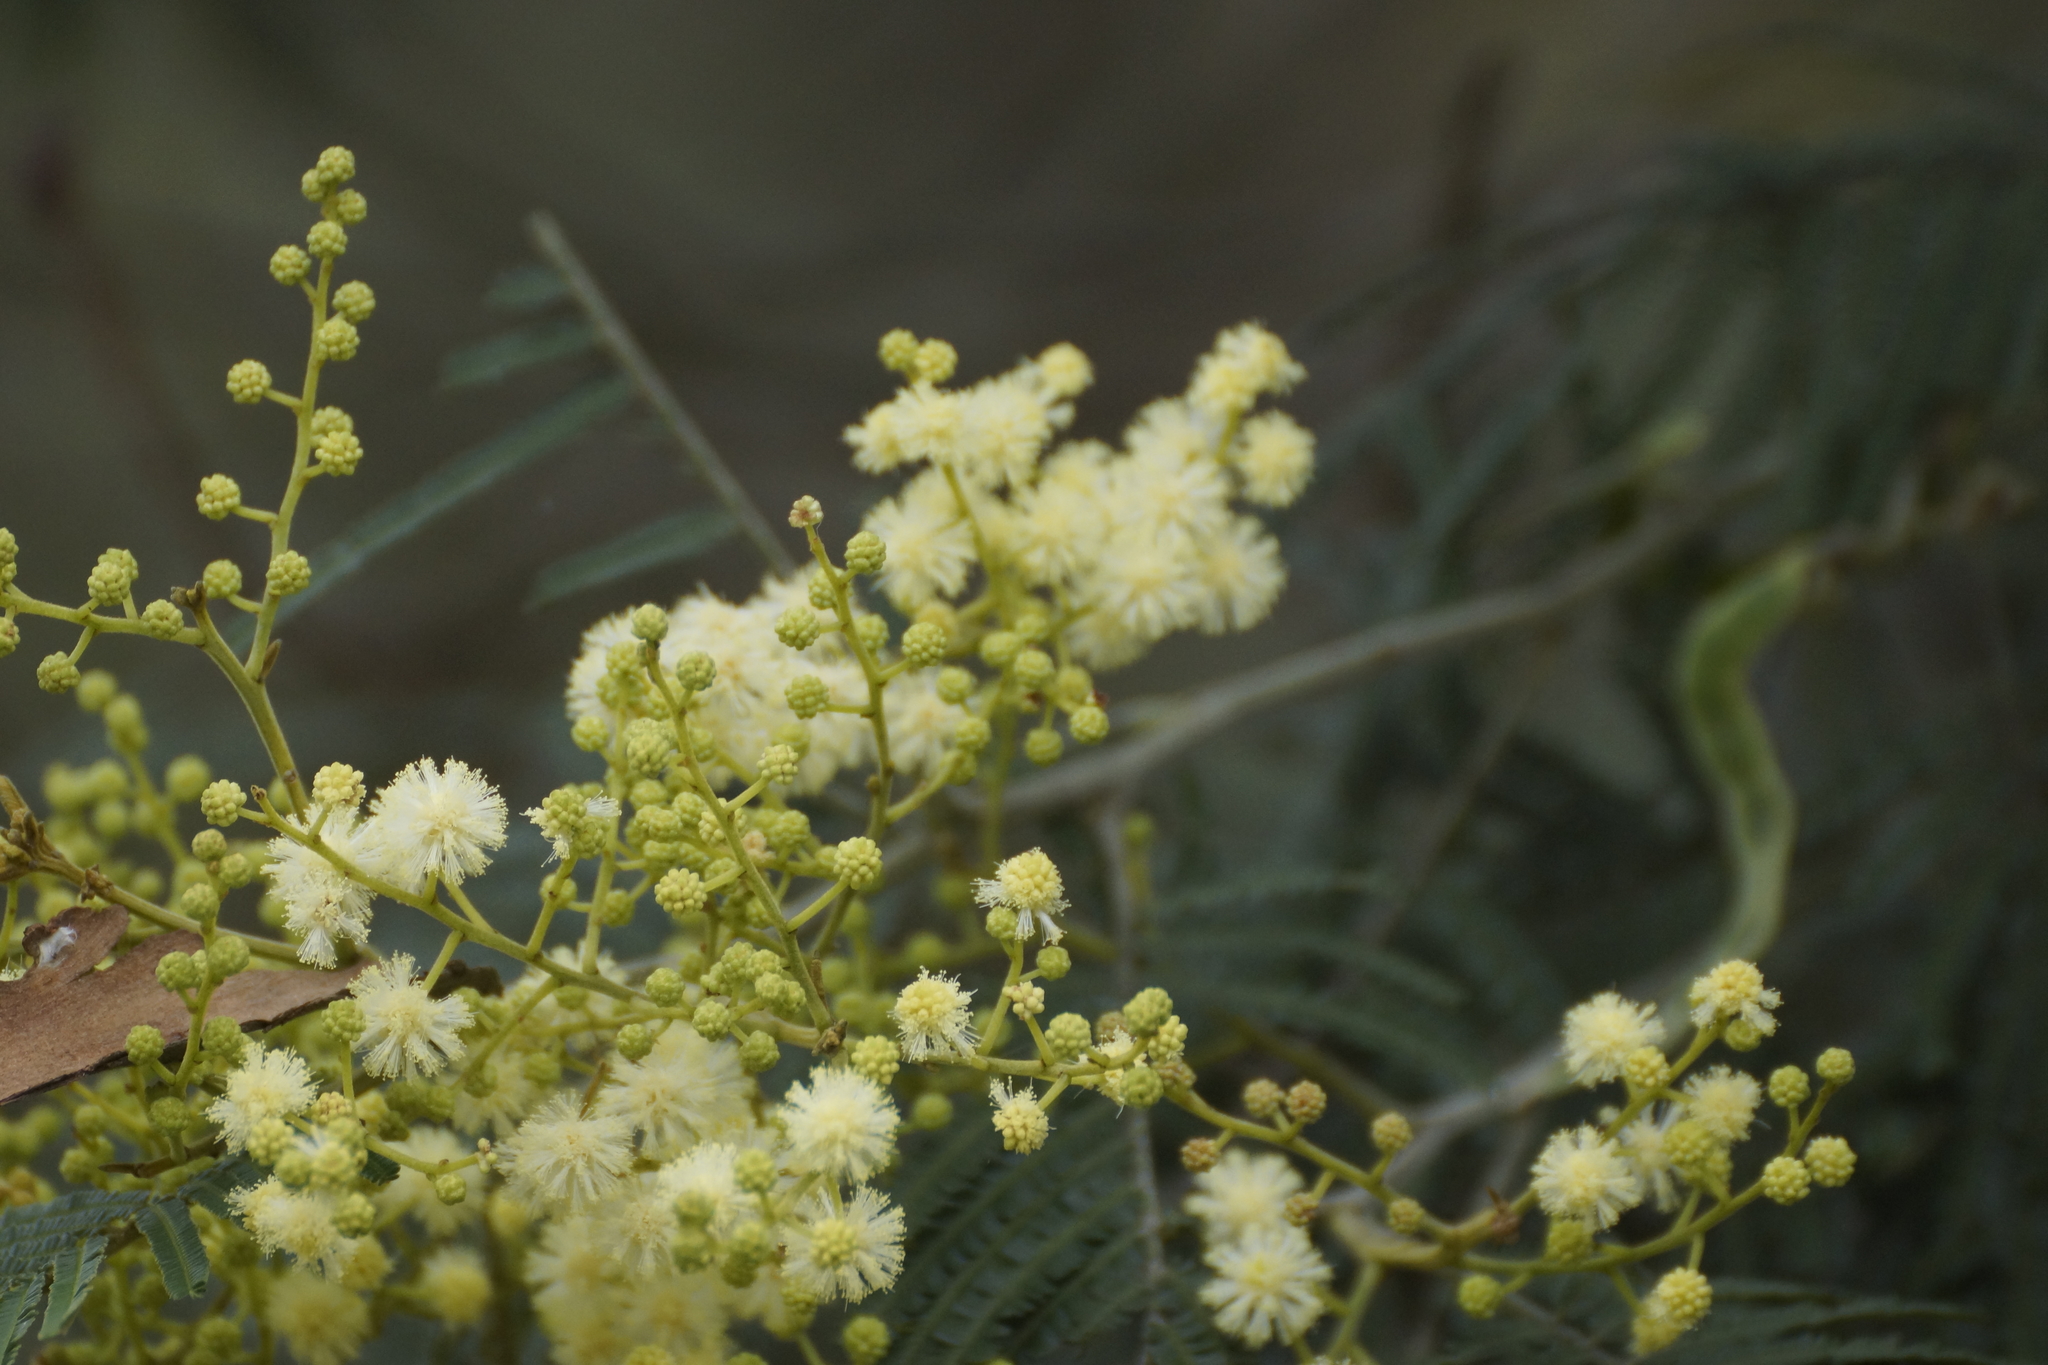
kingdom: Plantae
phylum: Tracheophyta
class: Magnoliopsida
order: Fabales
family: Fabaceae
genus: Acacia
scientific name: Acacia mearnsii
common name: Black wattle
